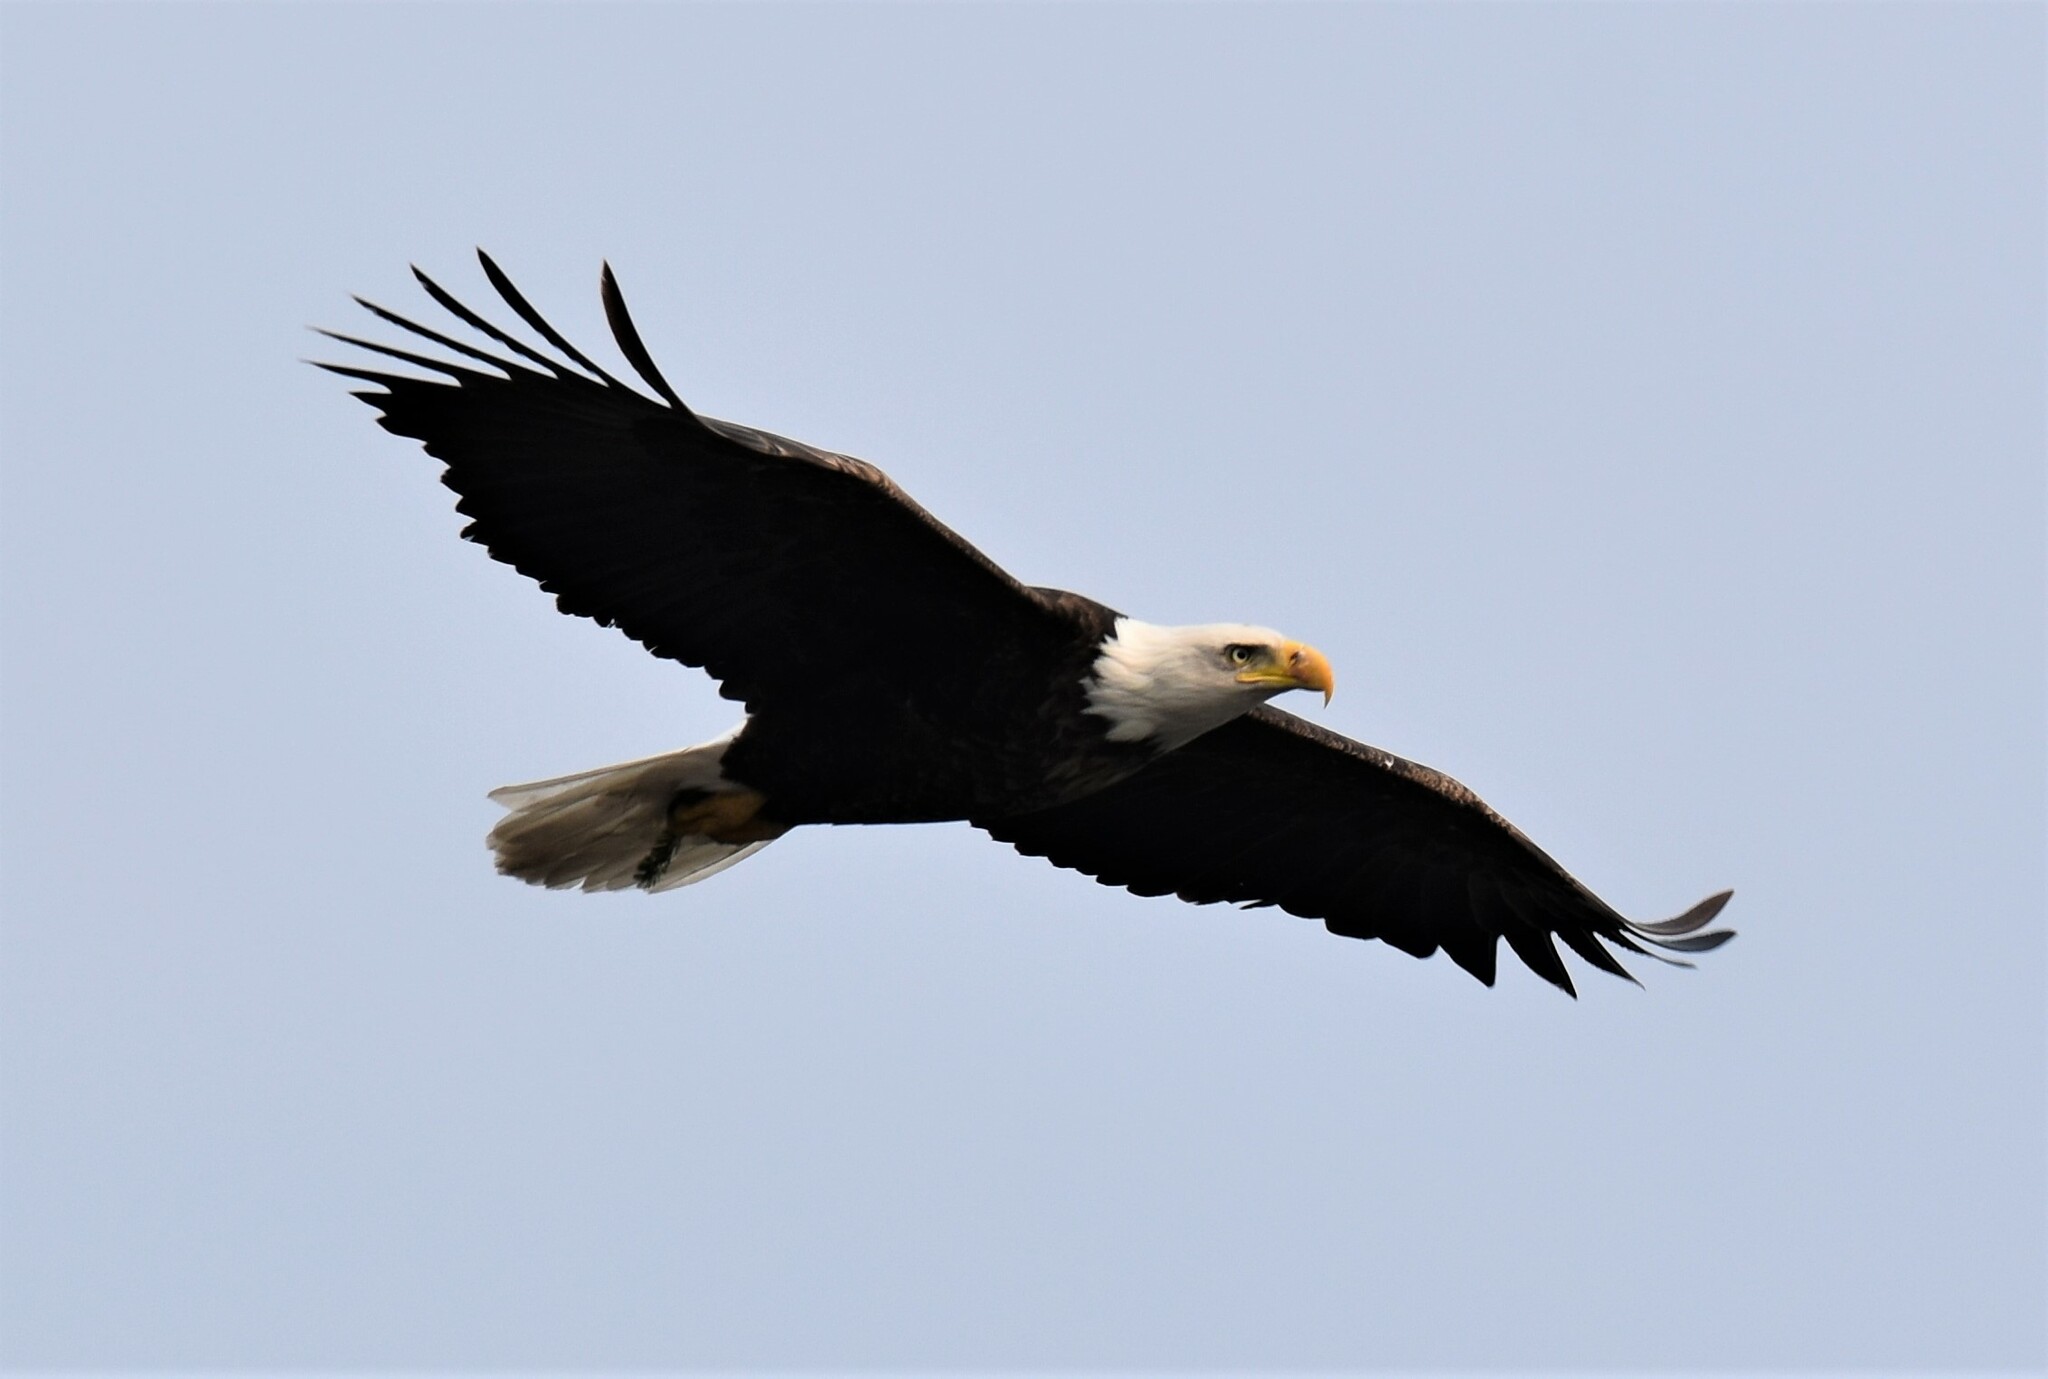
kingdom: Animalia
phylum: Chordata
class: Aves
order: Accipitriformes
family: Accipitridae
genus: Haliaeetus
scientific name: Haliaeetus leucocephalus
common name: Bald eagle
